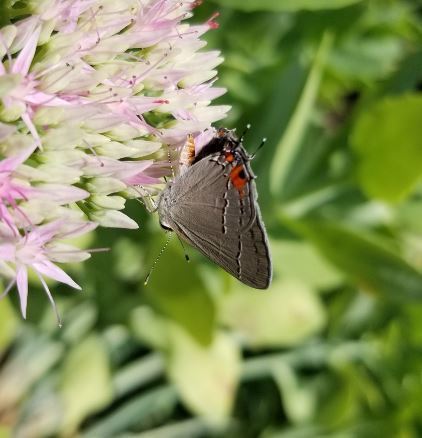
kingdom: Animalia
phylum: Arthropoda
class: Insecta
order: Lepidoptera
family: Lycaenidae
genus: Strymon
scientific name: Strymon melinus
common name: Gray hairstreak
